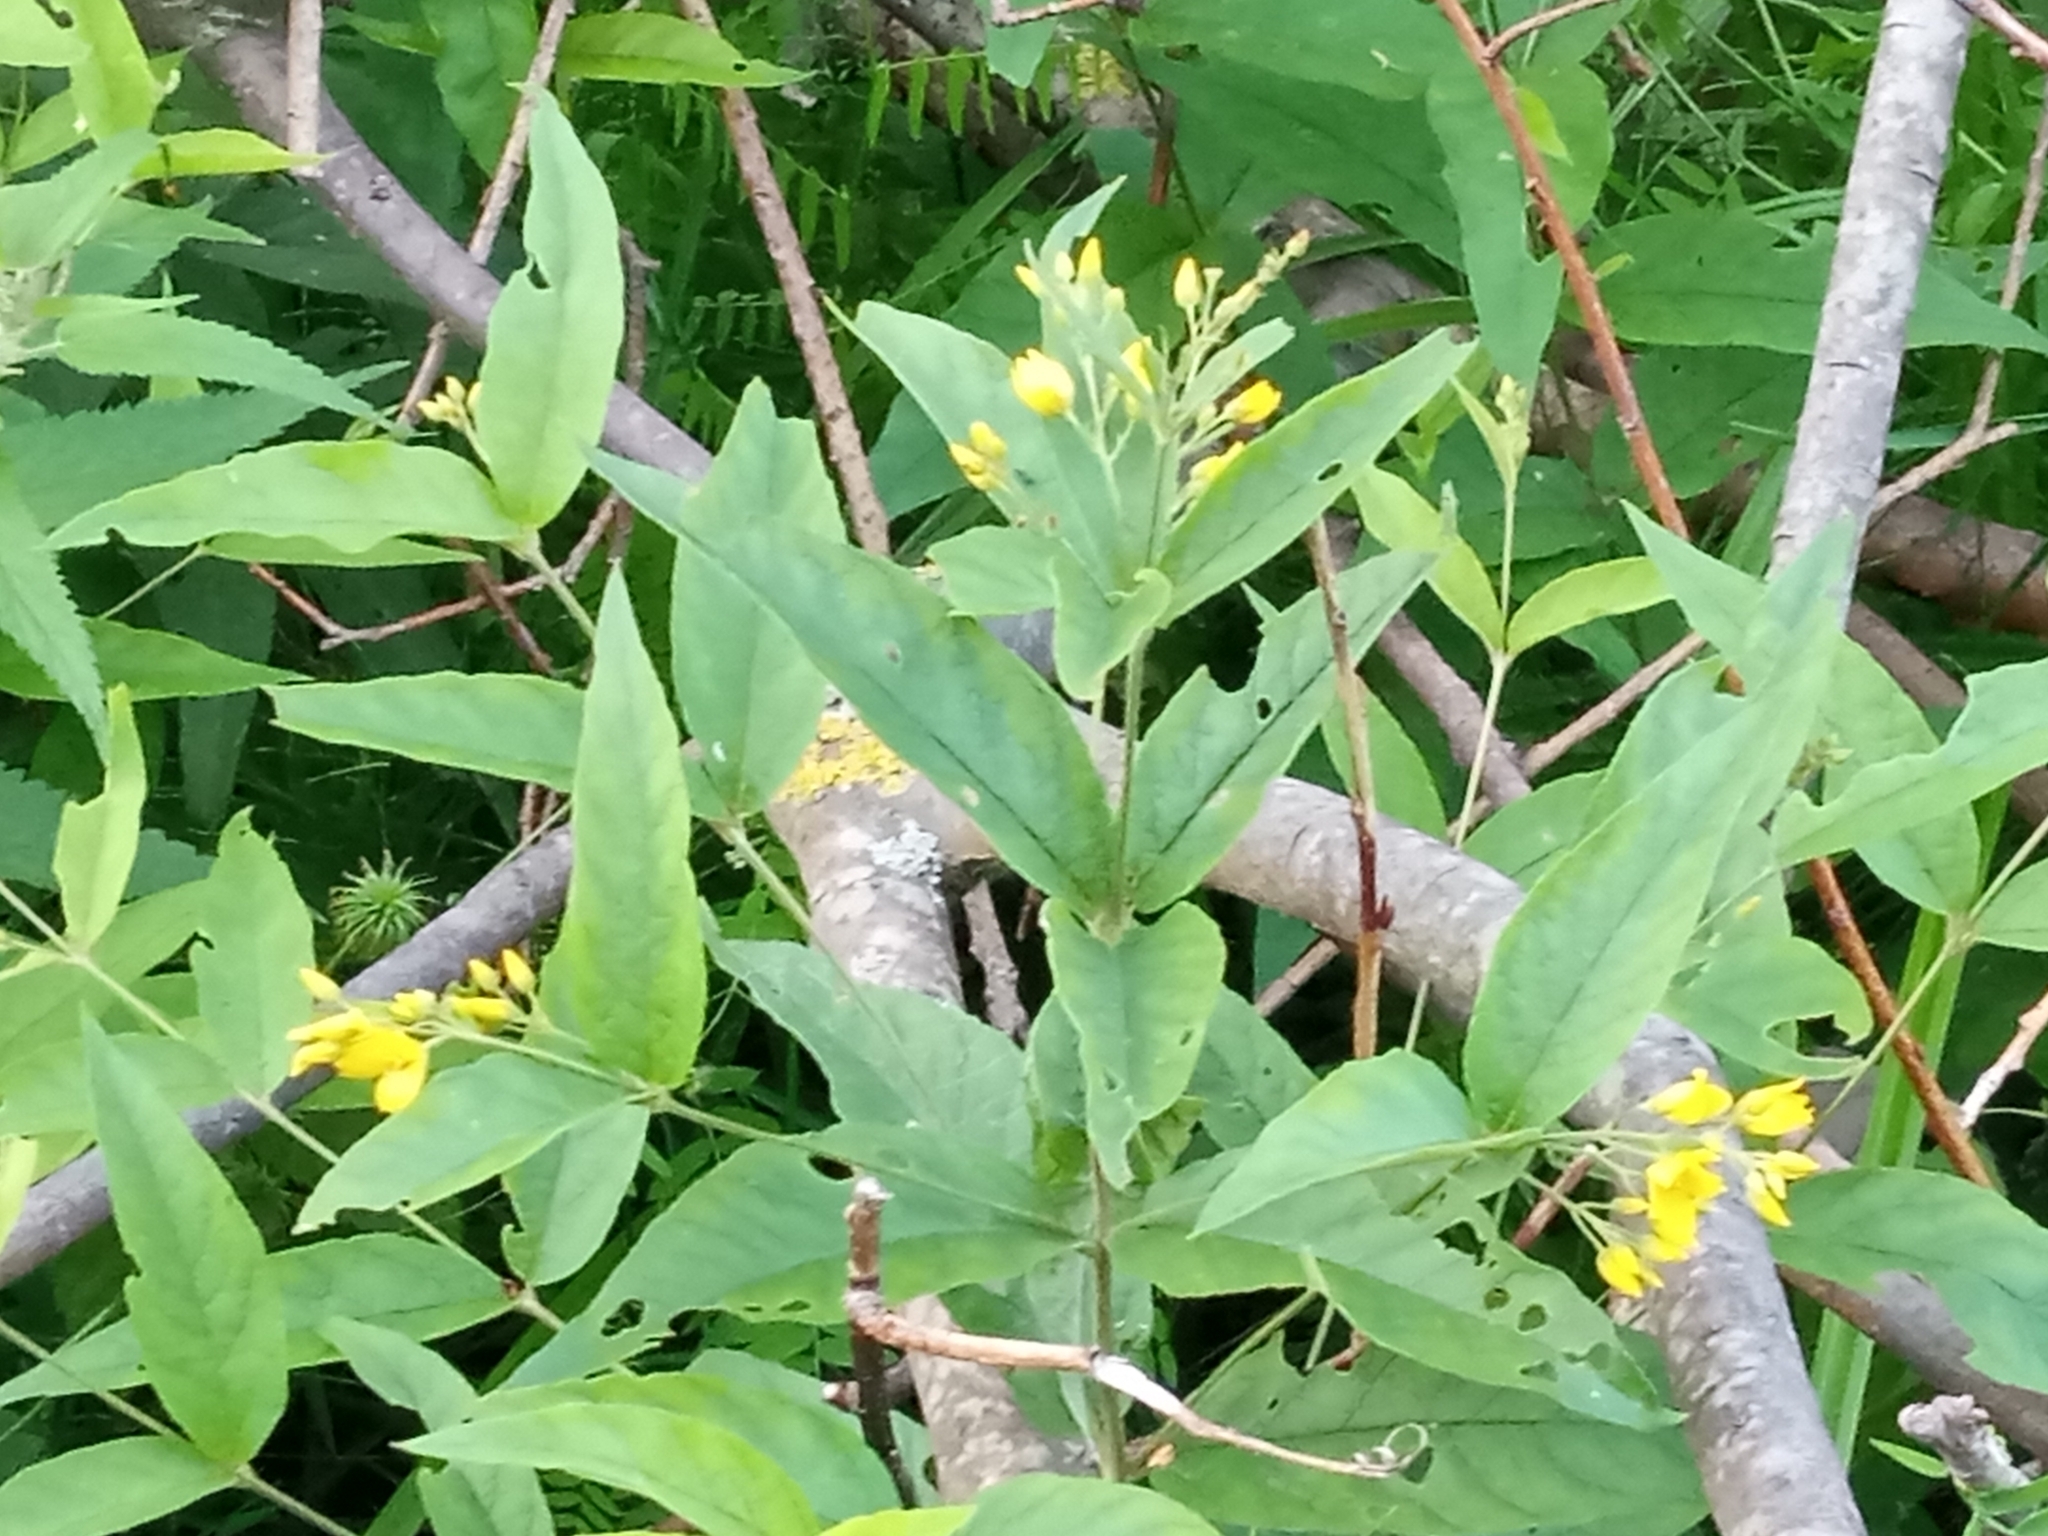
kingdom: Plantae
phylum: Tracheophyta
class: Magnoliopsida
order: Ericales
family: Primulaceae
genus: Lysimachia
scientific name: Lysimachia vulgaris
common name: Yellow loosestrife
